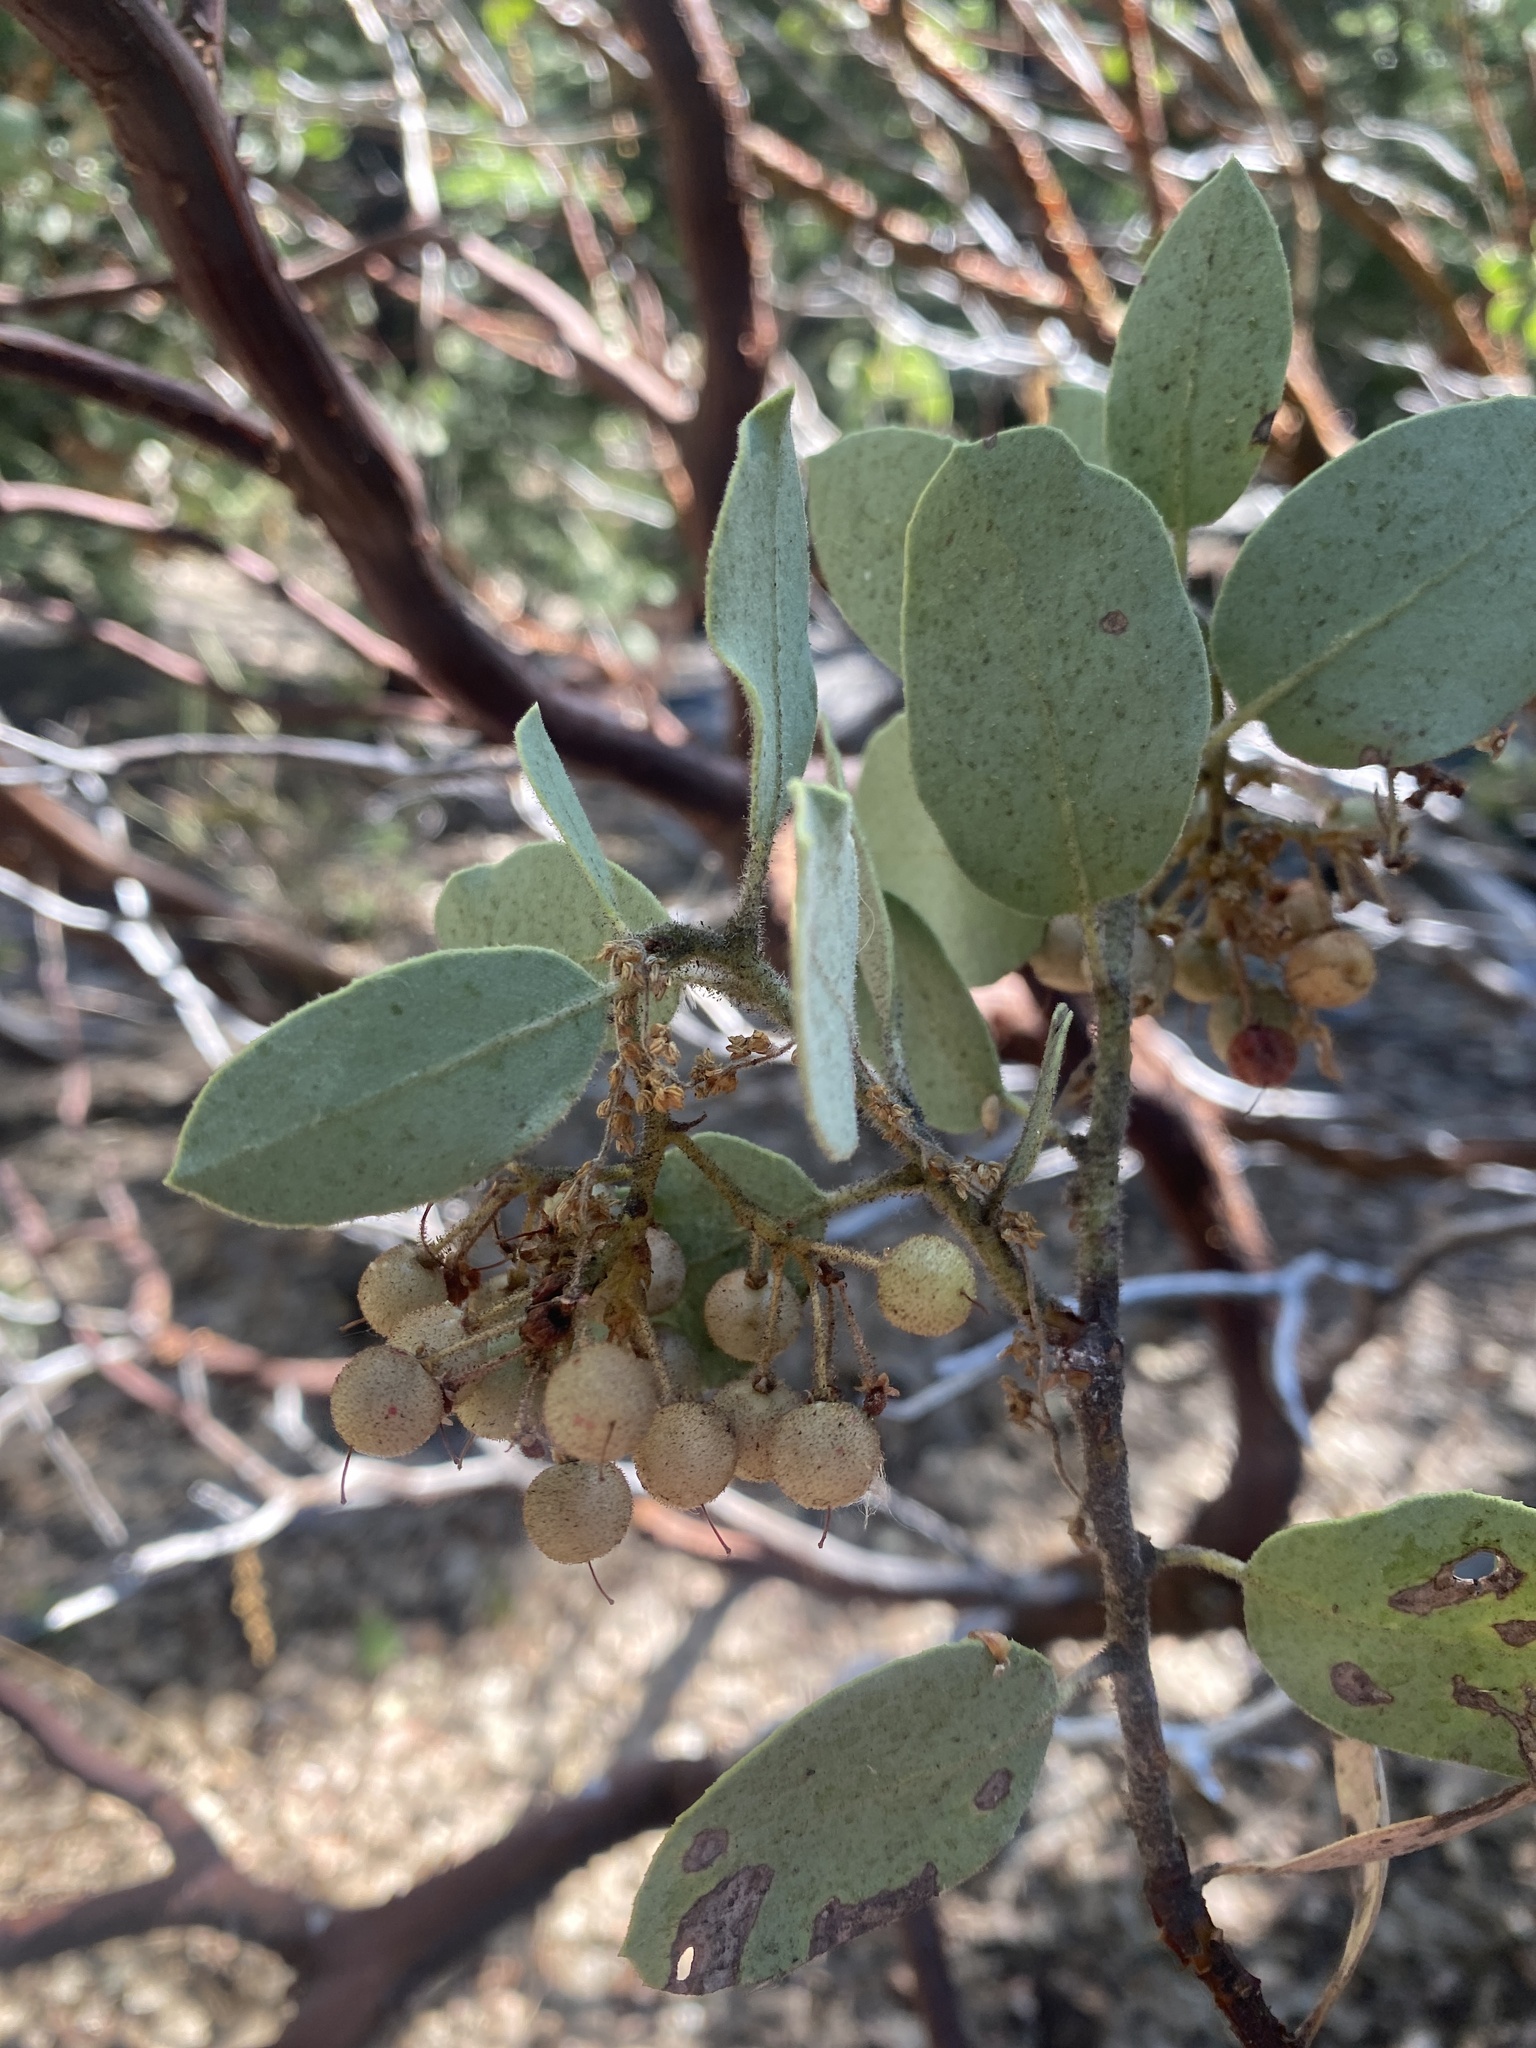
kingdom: Plantae
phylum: Tracheophyta
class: Magnoliopsida
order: Ericales
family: Ericaceae
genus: Arctostaphylos
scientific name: Arctostaphylos viscida
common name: White-leaf manzanita
